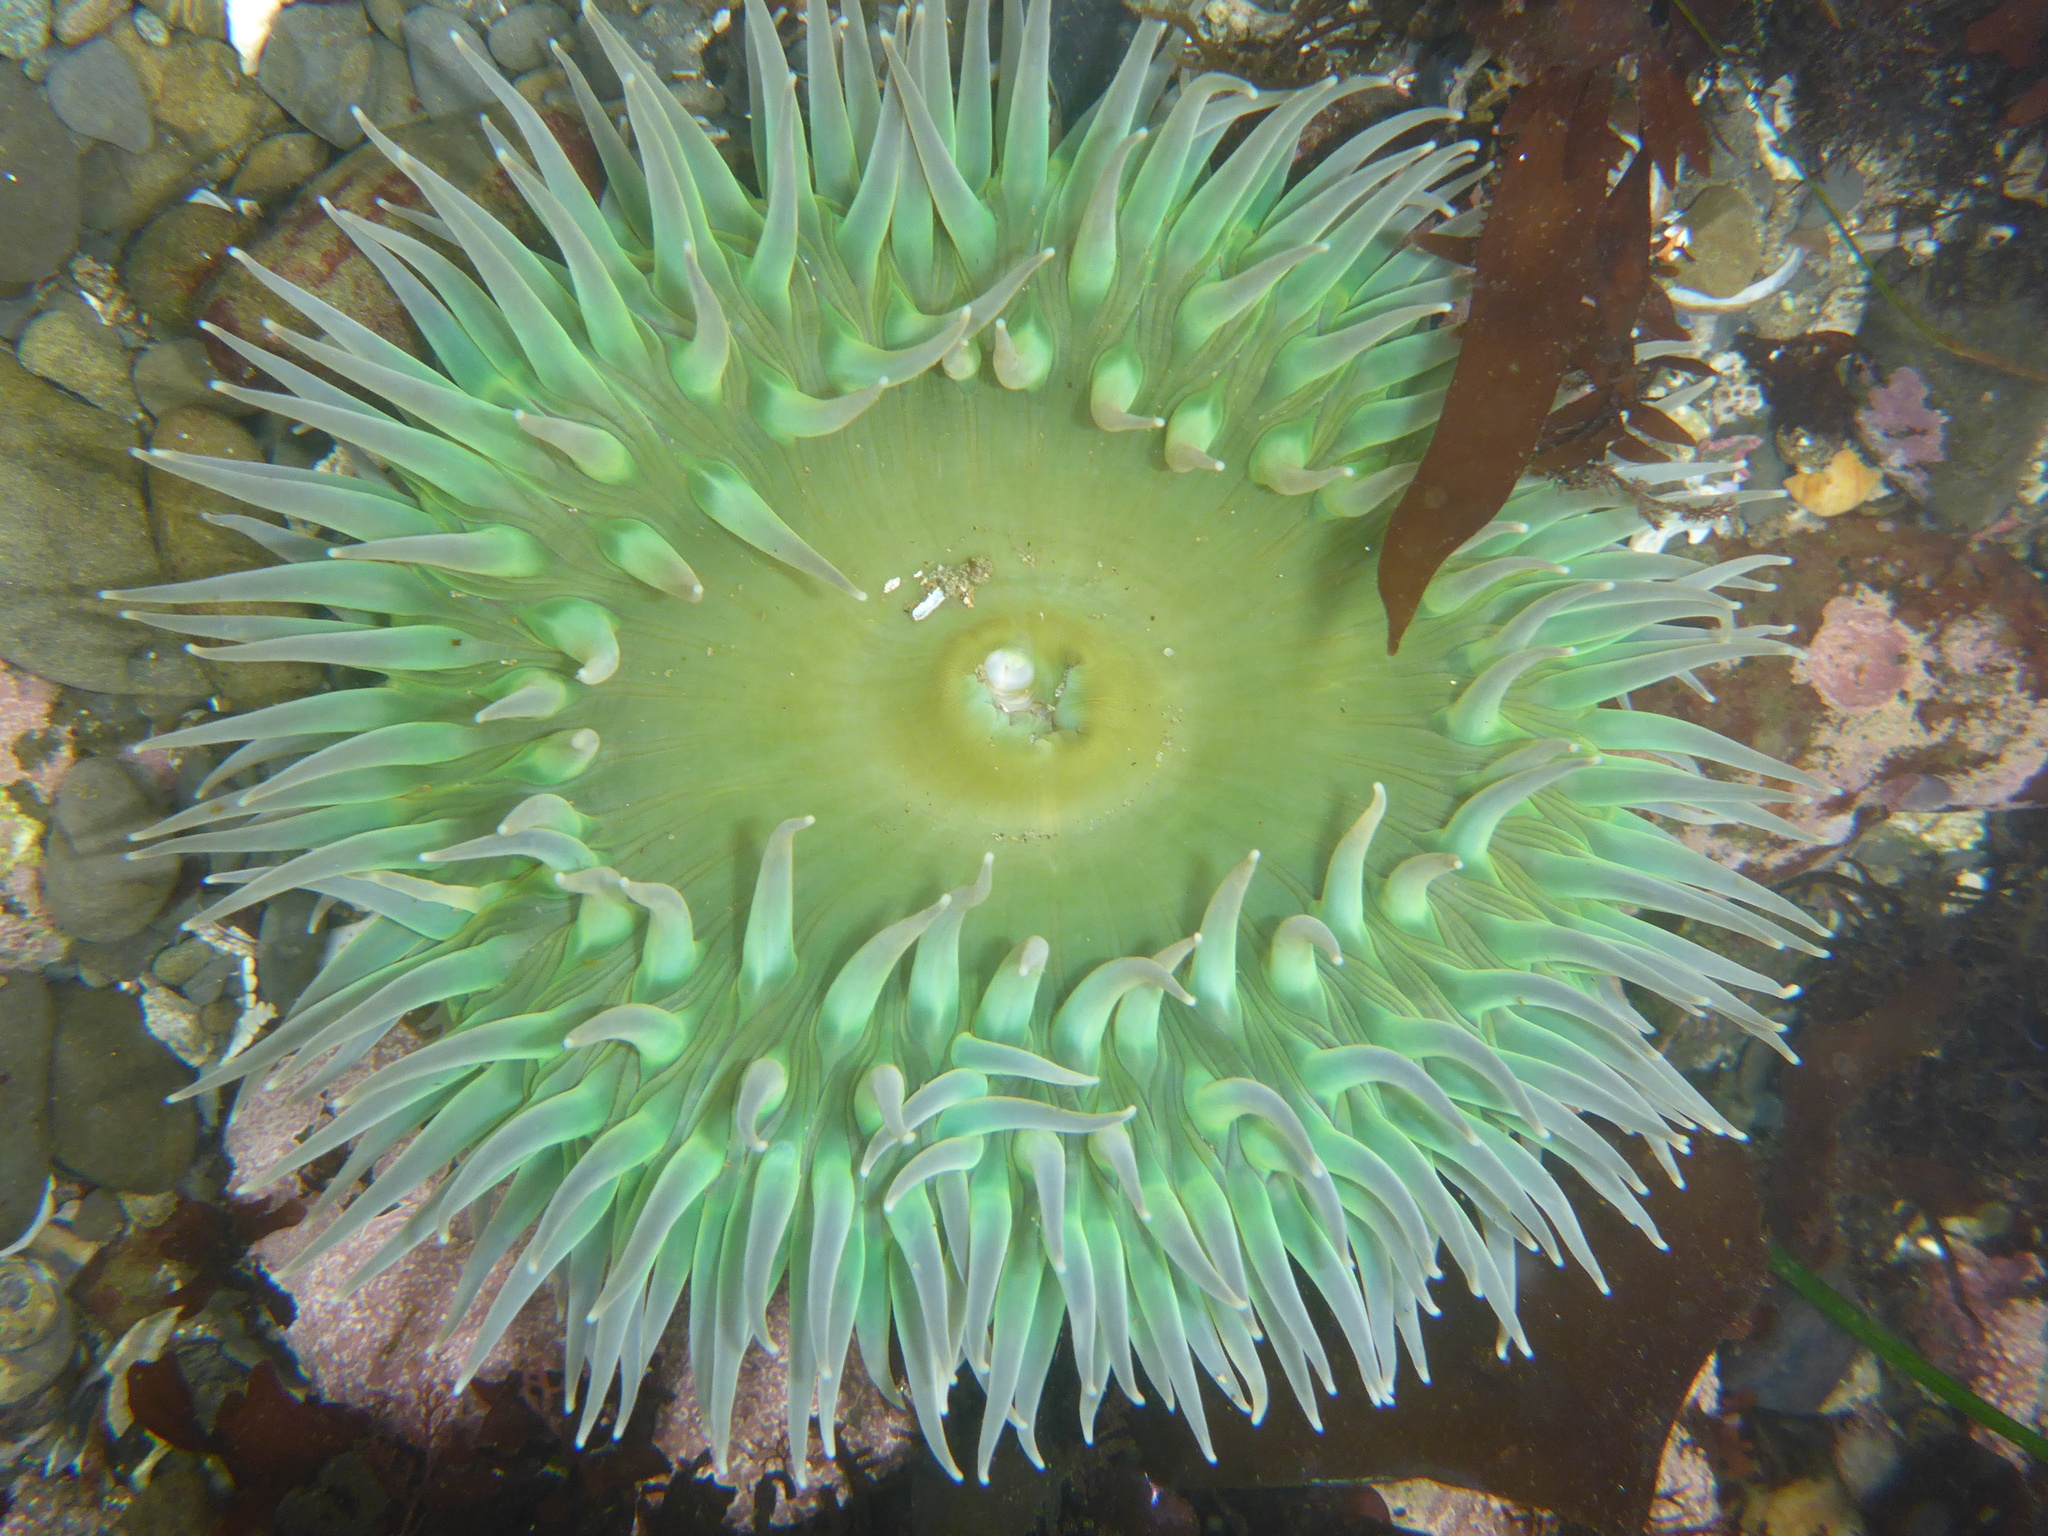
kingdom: Animalia
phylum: Cnidaria
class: Anthozoa
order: Actiniaria
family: Actiniidae
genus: Anthopleura
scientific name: Anthopleura xanthogrammica
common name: Giant green anemone
